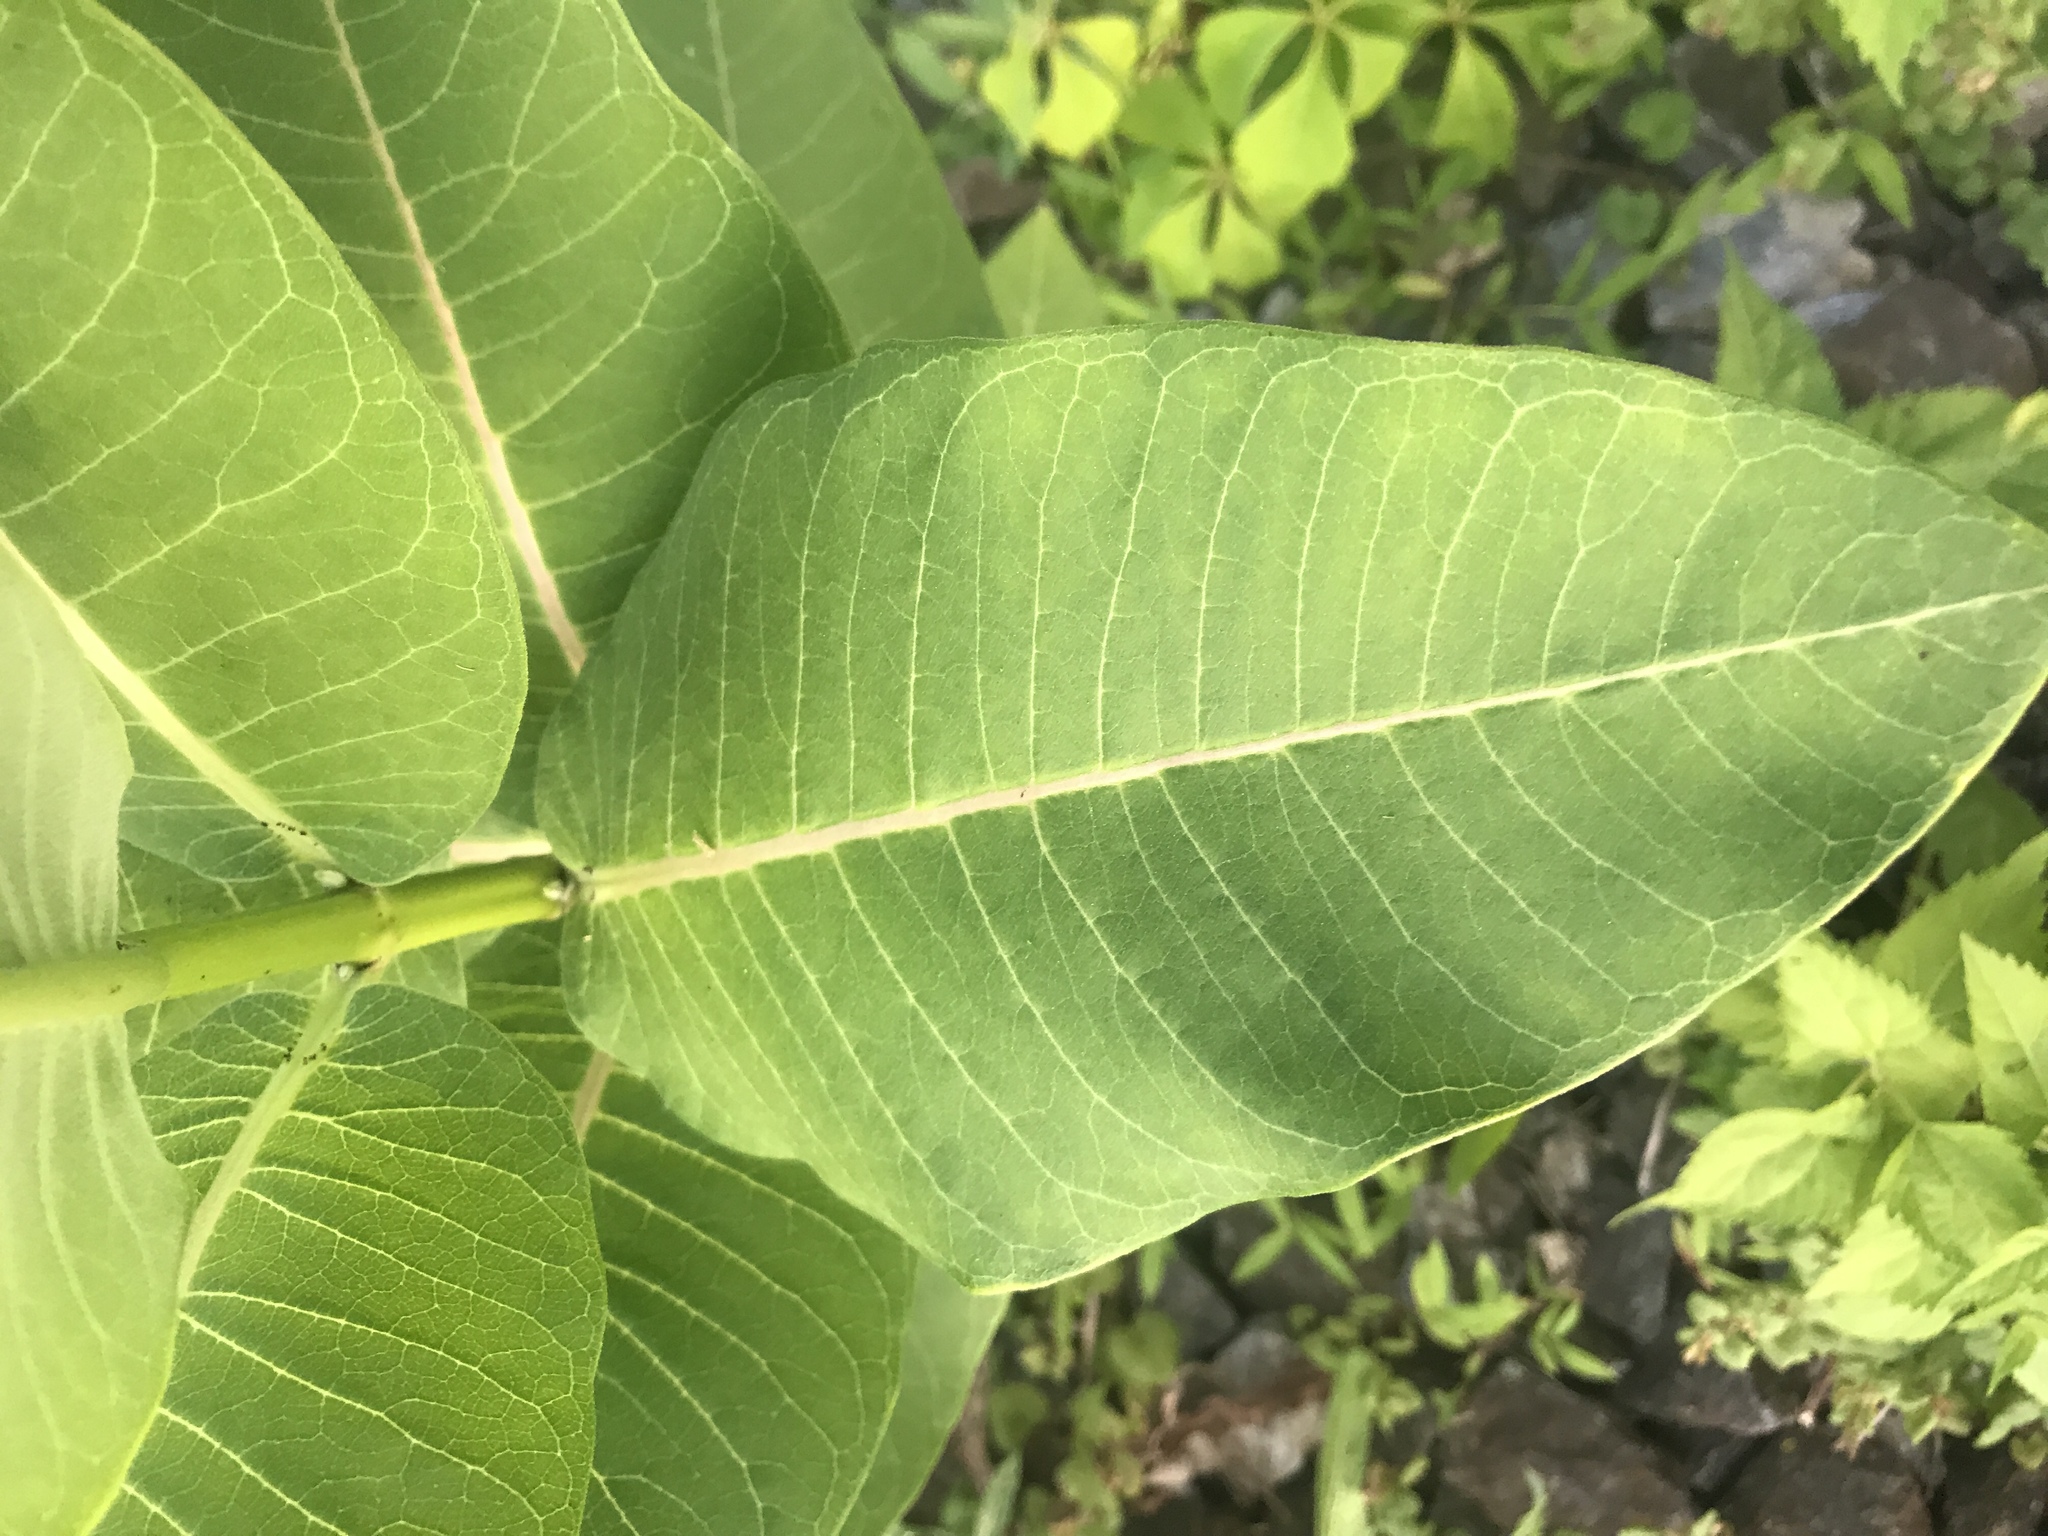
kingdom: Plantae
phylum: Tracheophyta
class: Magnoliopsida
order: Gentianales
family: Apocynaceae
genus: Asclepias
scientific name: Asclepias syriaca
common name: Common milkweed
